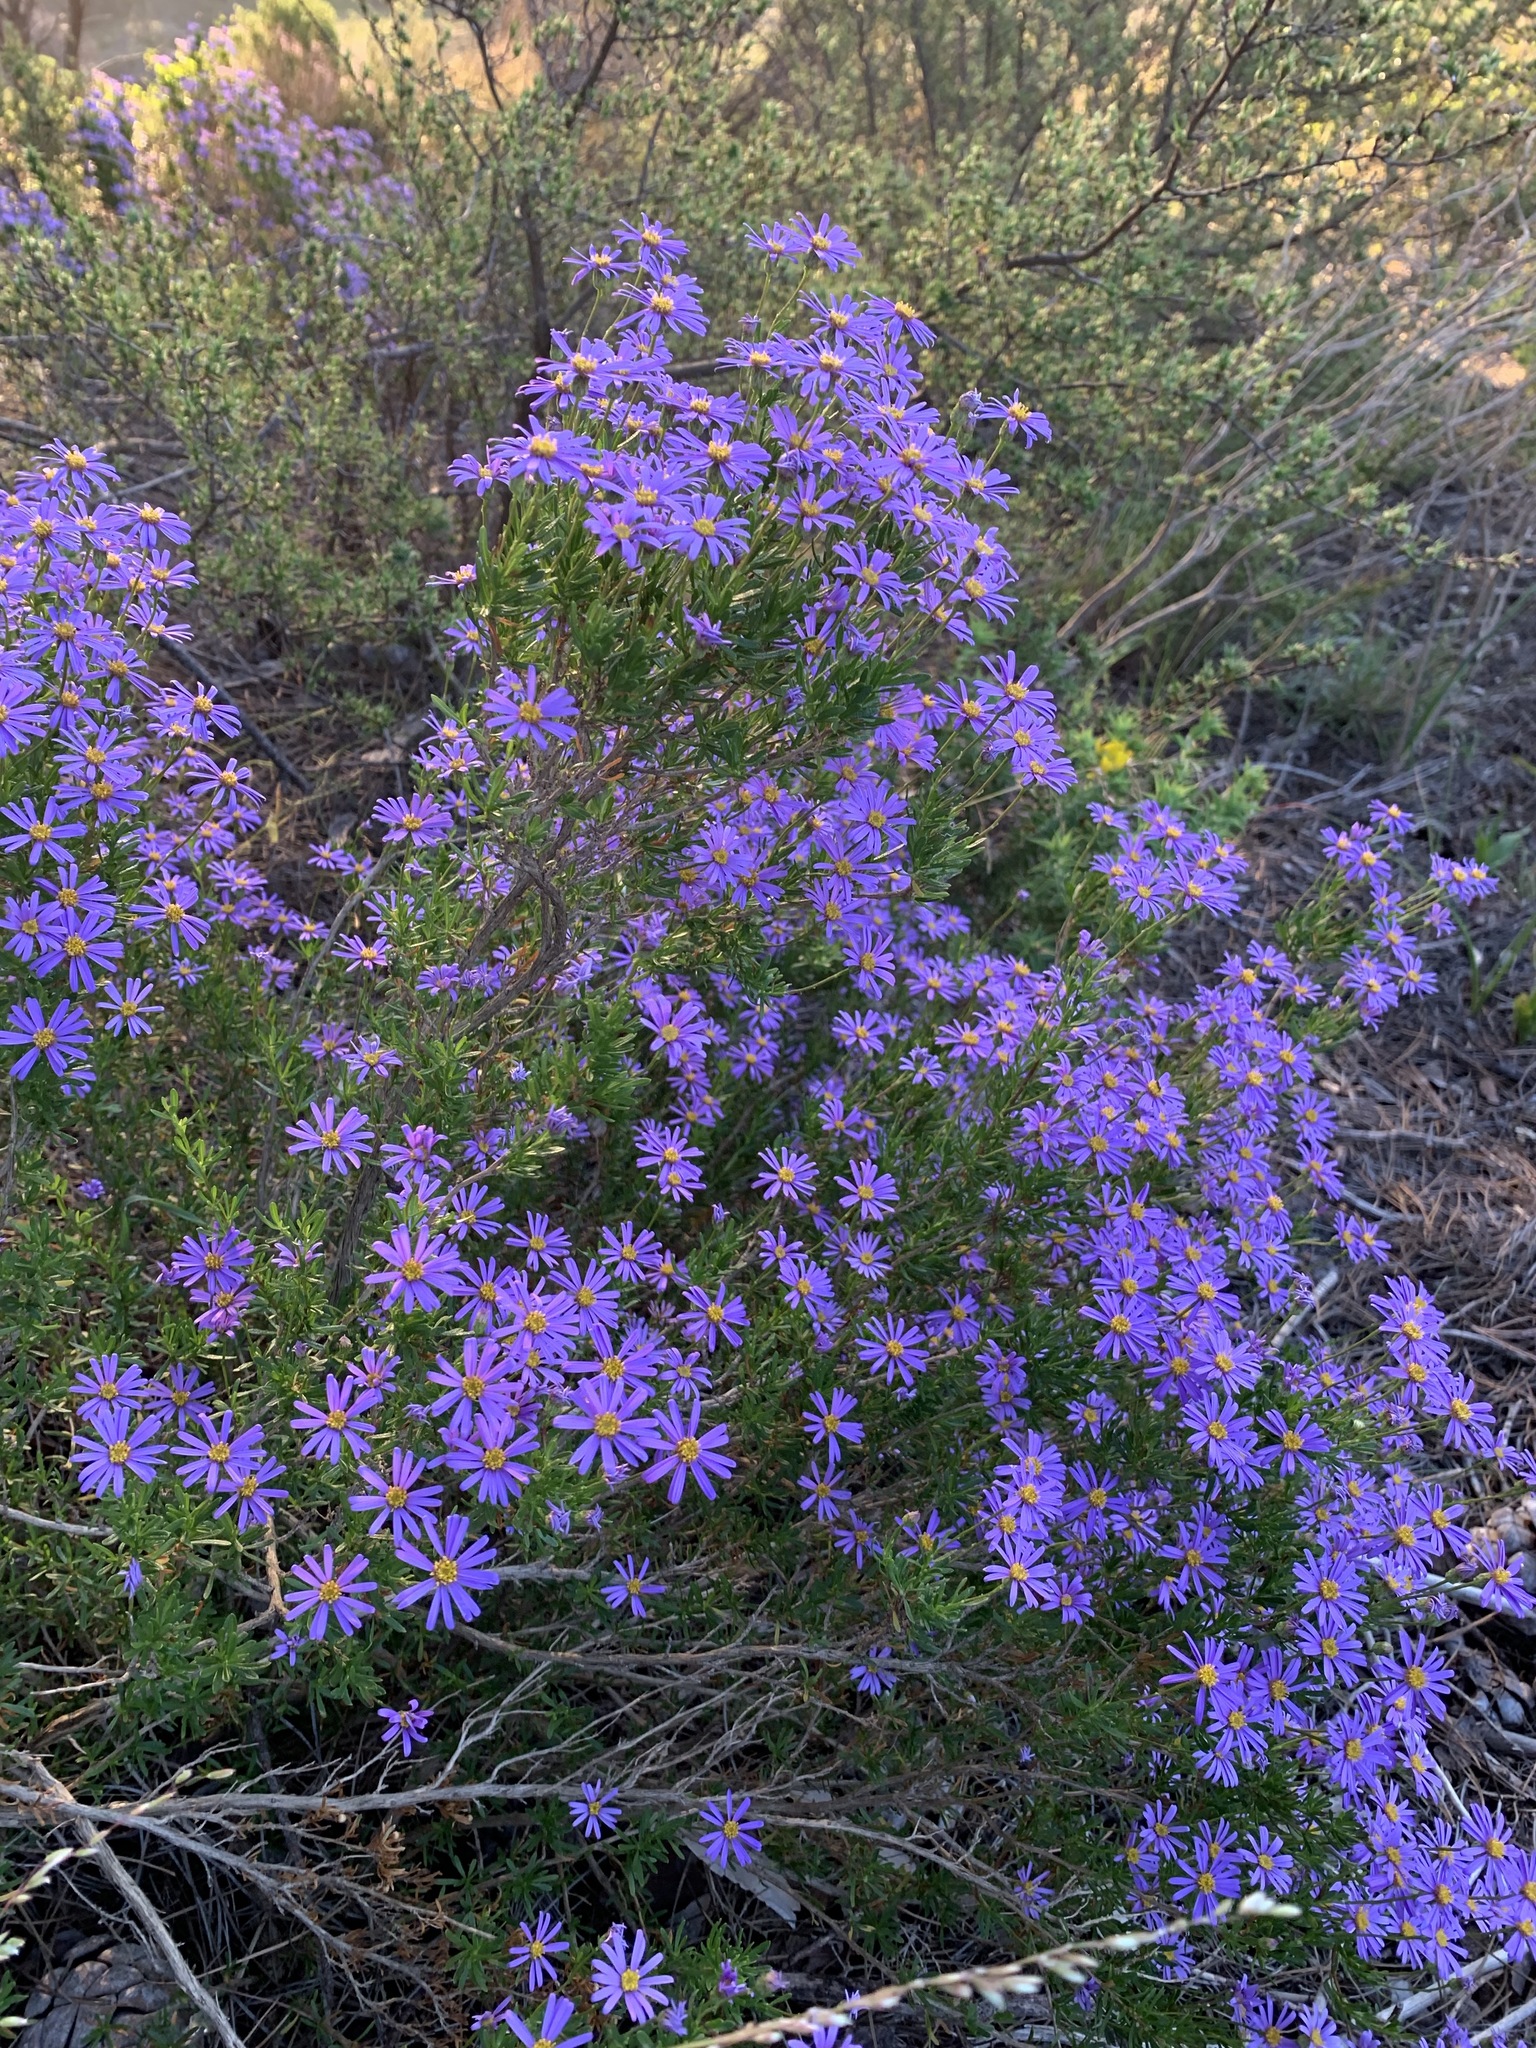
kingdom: Plantae
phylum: Tracheophyta
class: Magnoliopsida
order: Asterales
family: Asteraceae
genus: Felicia
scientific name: Felicia fruticosa
